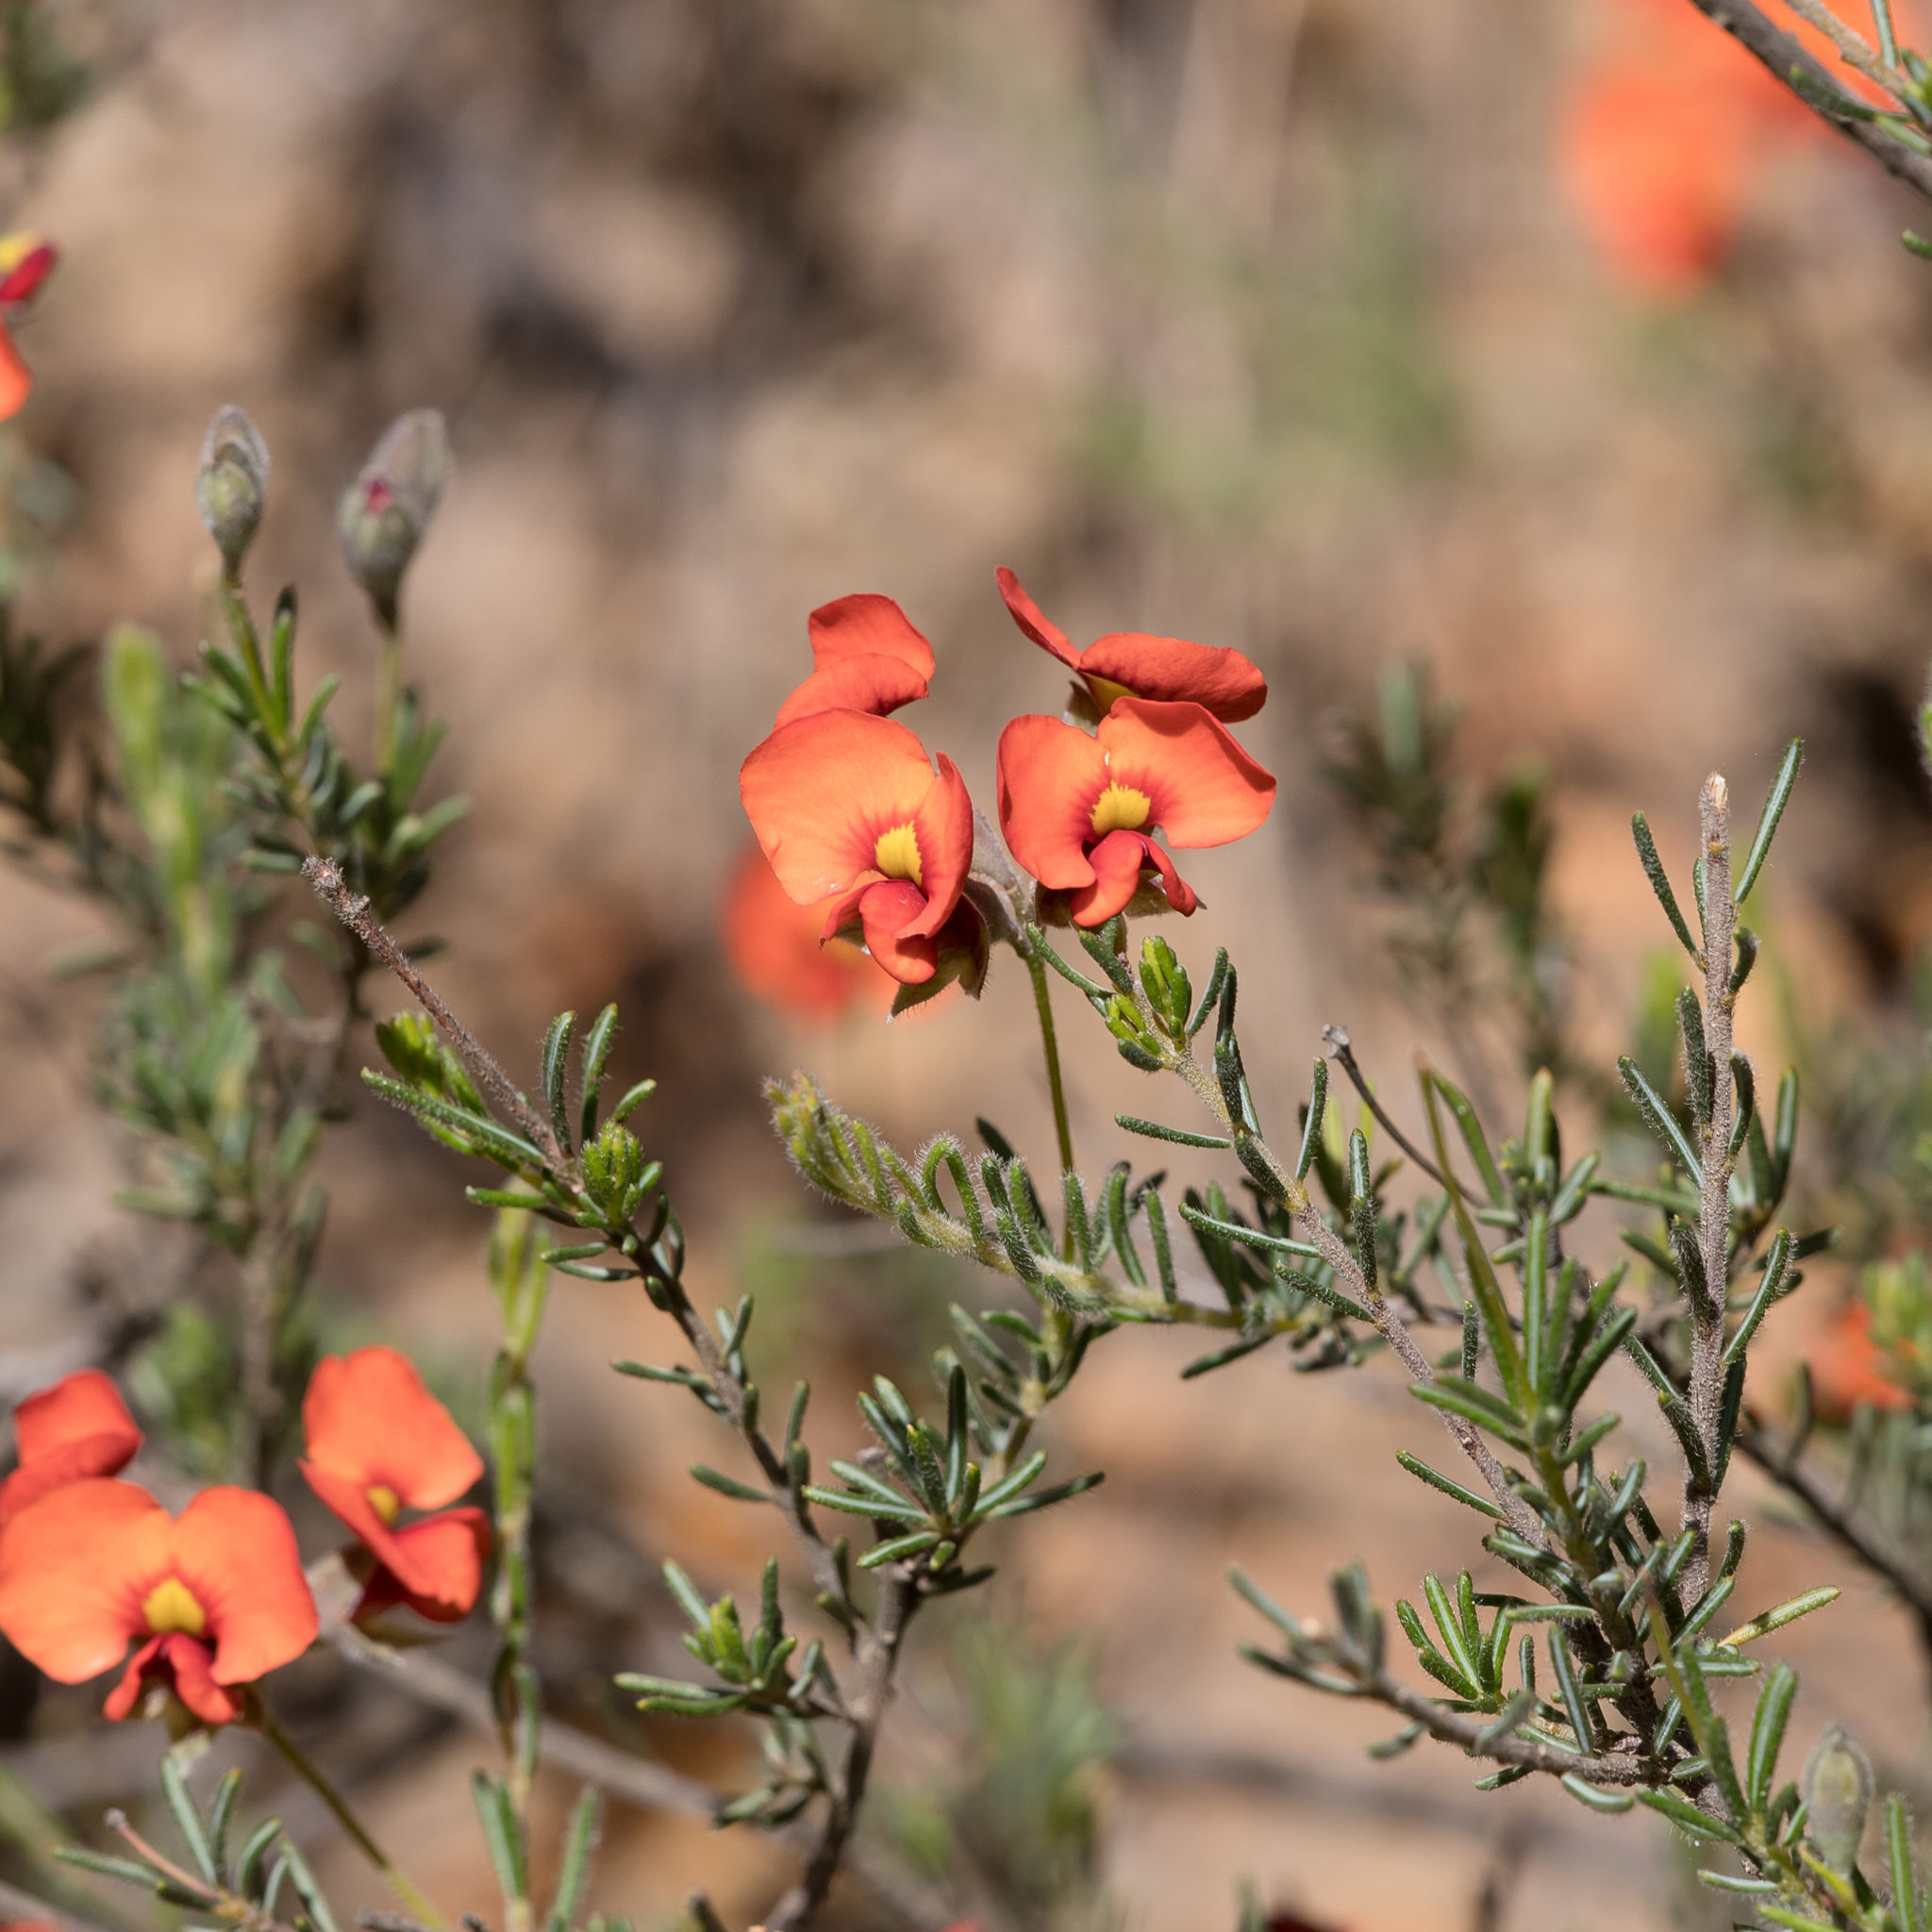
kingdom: Plantae
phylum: Tracheophyta
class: Magnoliopsida
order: Fabales
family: Fabaceae
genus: Dillwynia
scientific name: Dillwynia hispida
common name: Red parrot-pea
